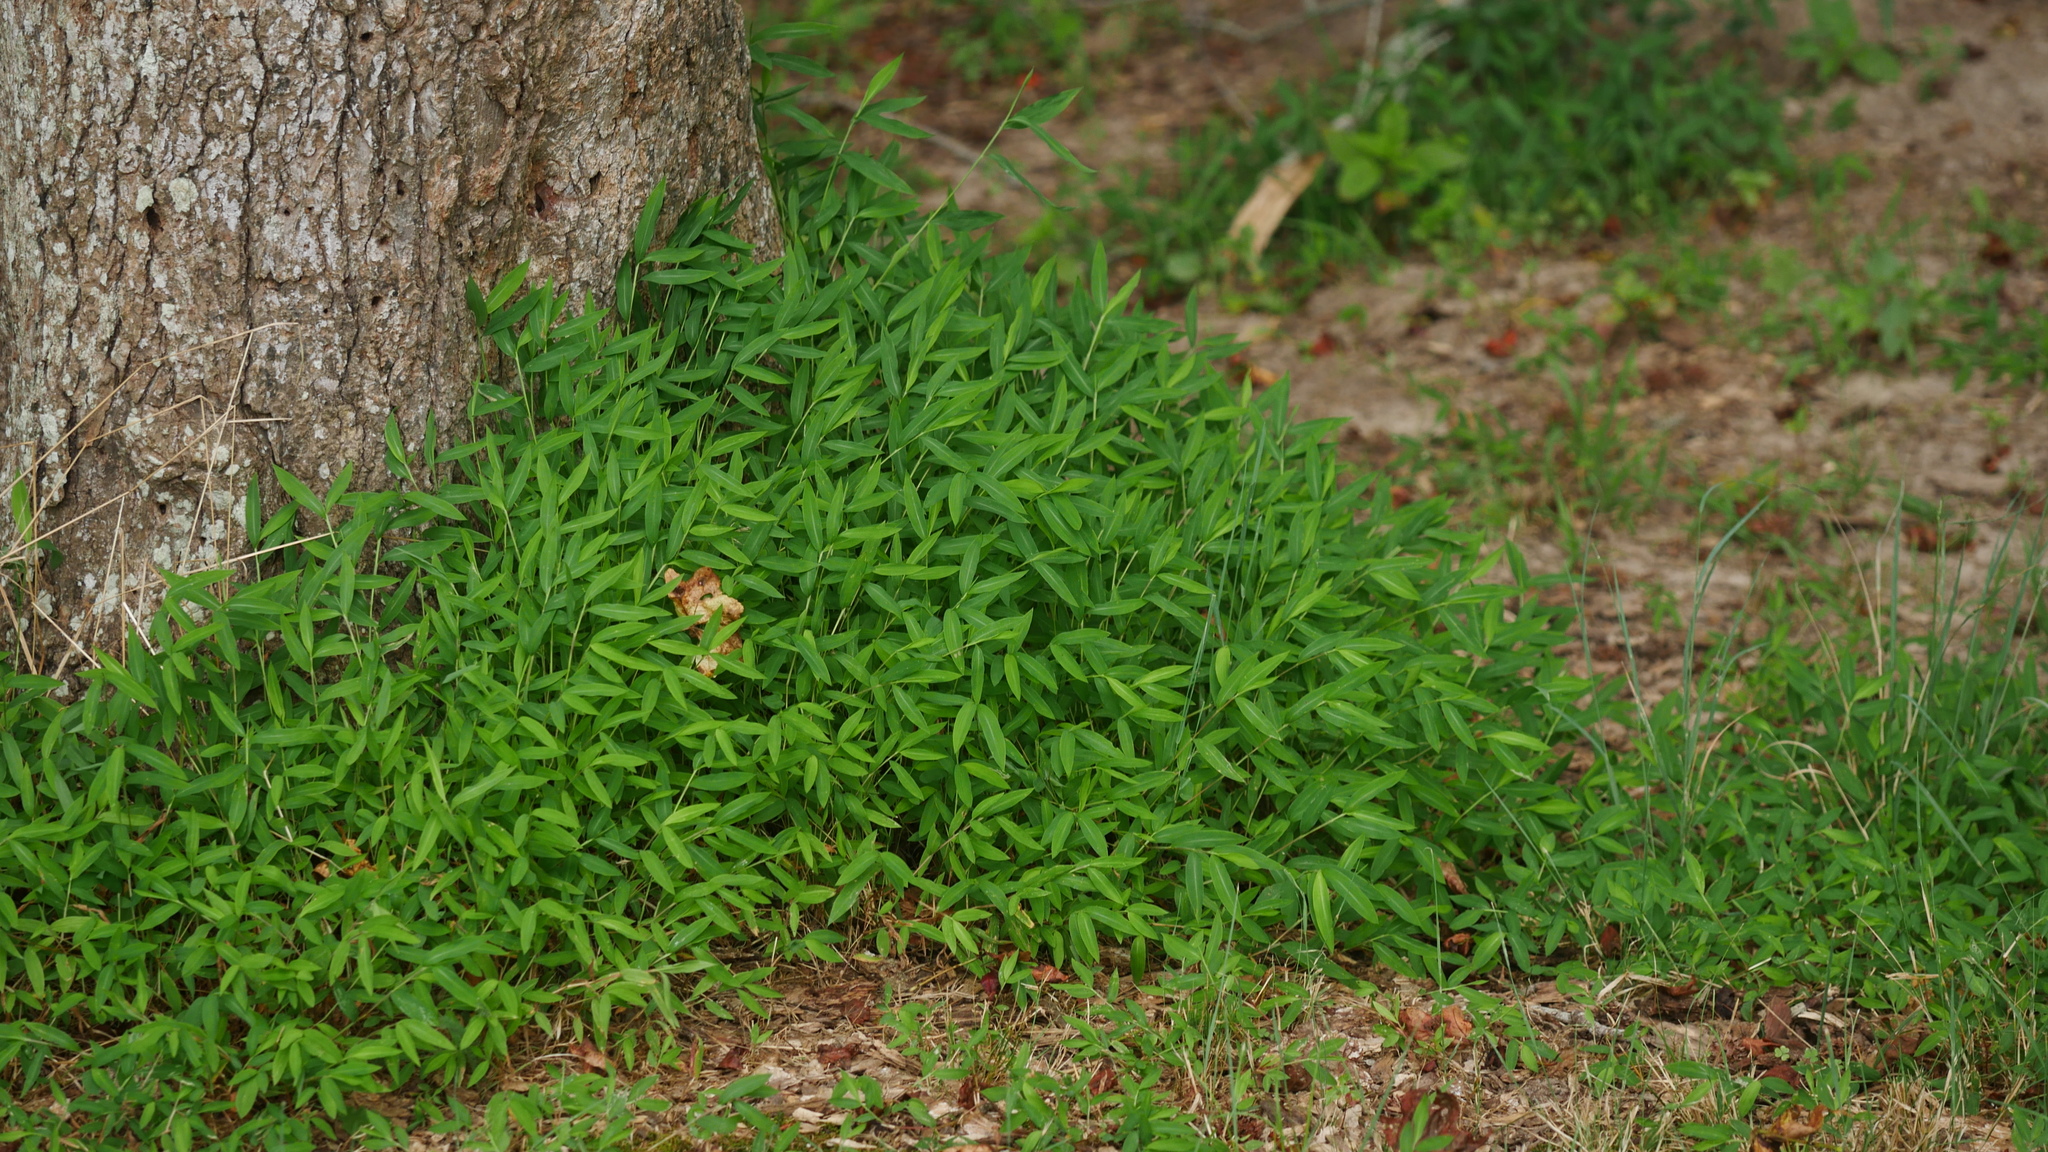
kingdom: Plantae
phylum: Tracheophyta
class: Liliopsida
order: Poales
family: Poaceae
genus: Microstegium
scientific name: Microstegium vimineum
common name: Japanese stiltgrass
